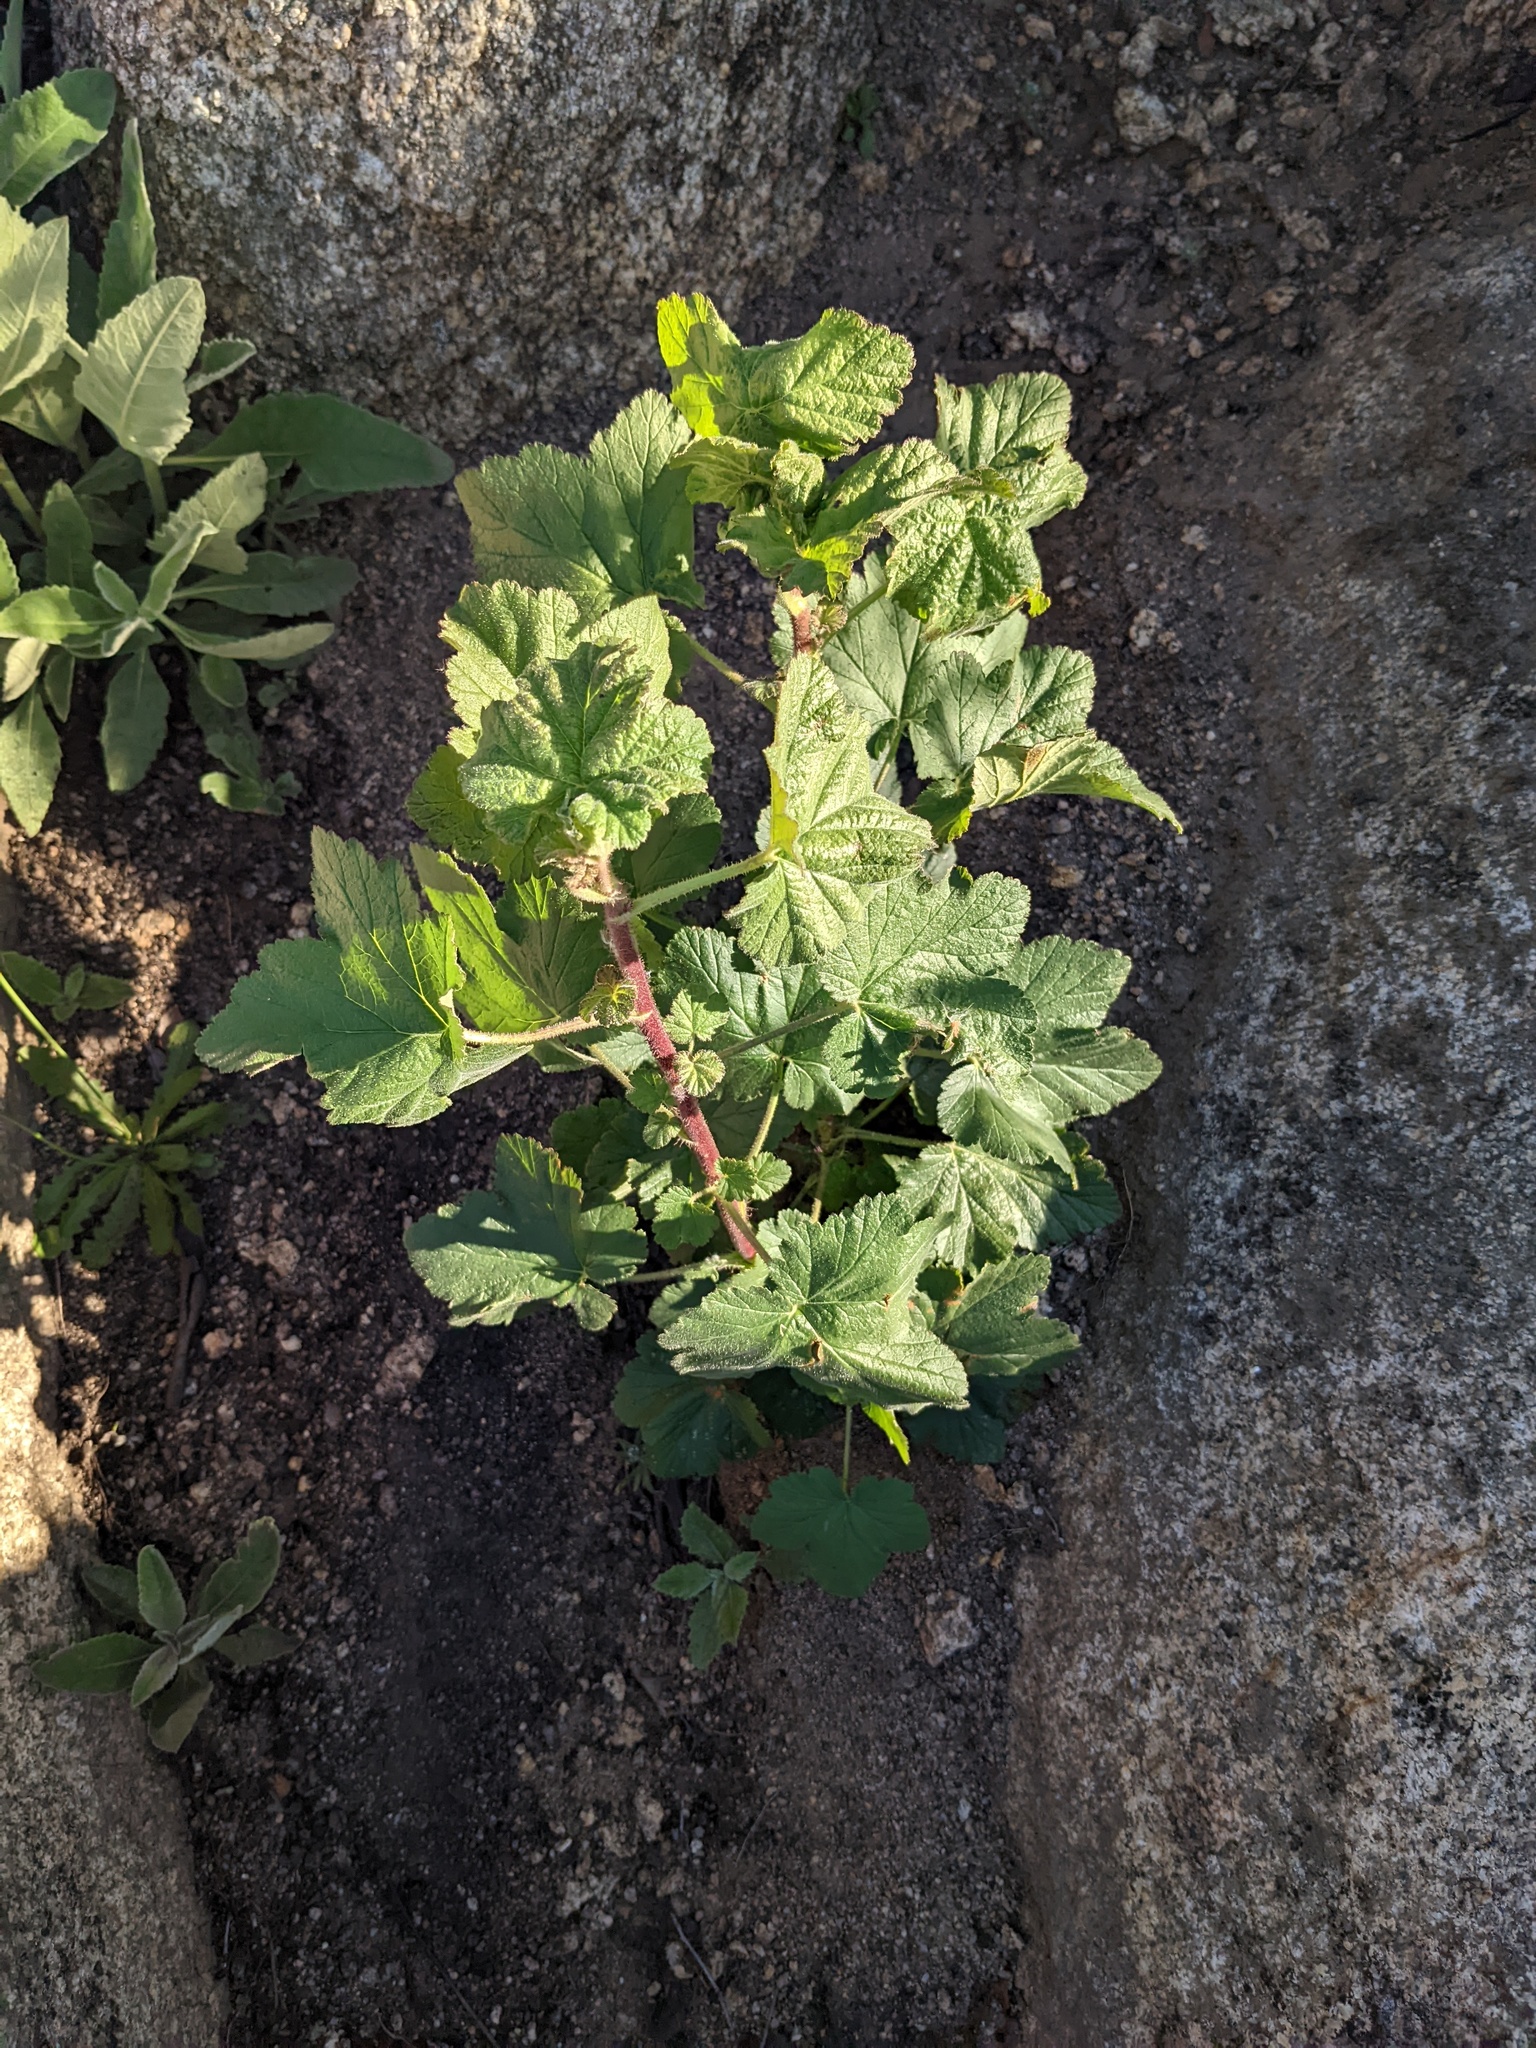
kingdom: Plantae
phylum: Tracheophyta
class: Magnoliopsida
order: Saxifragales
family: Grossulariaceae
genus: Ribes
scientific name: Ribes canthariforme
